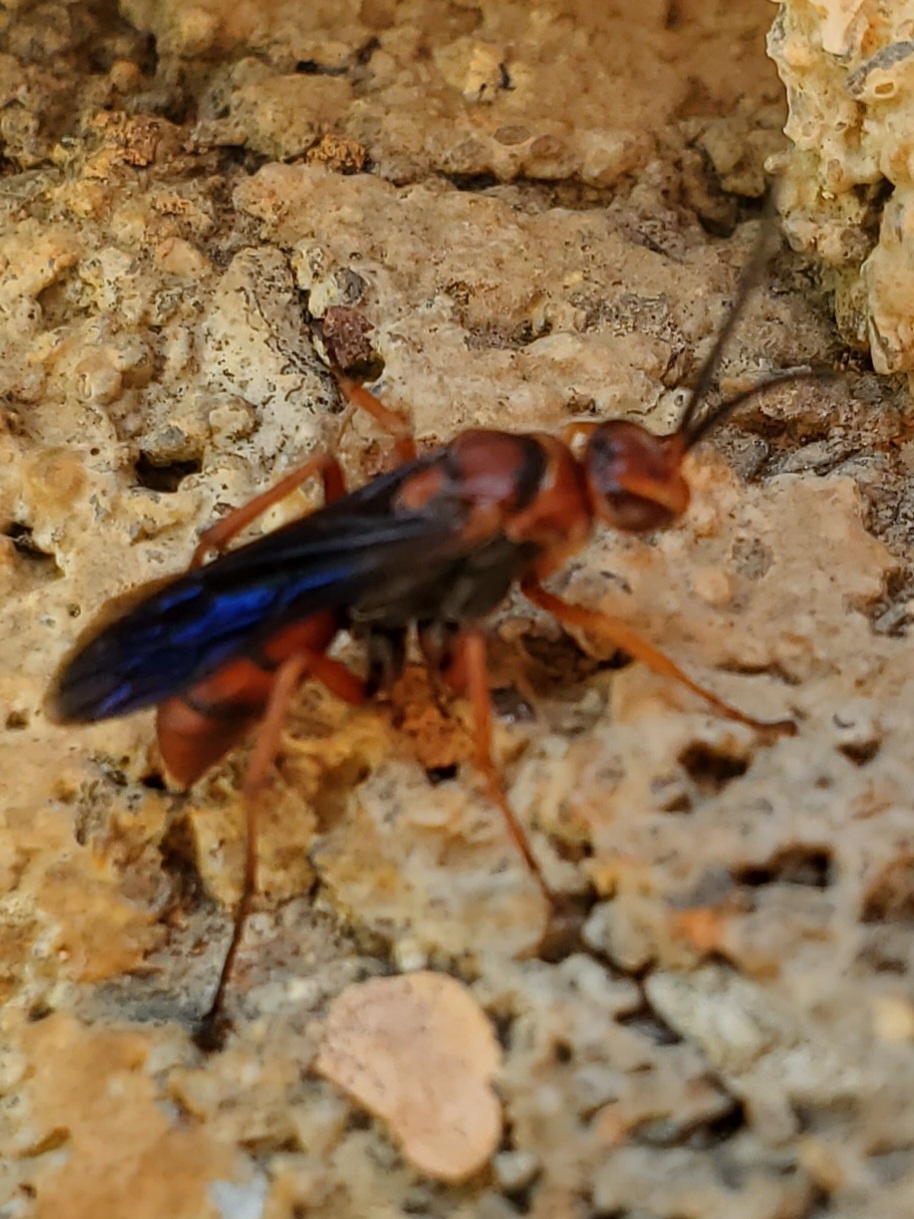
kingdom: Animalia
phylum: Arthropoda
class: Insecta
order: Hymenoptera
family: Pompilidae
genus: Tachypompilus
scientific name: Tachypompilus ferrugineus
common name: Rusty spider wasp
